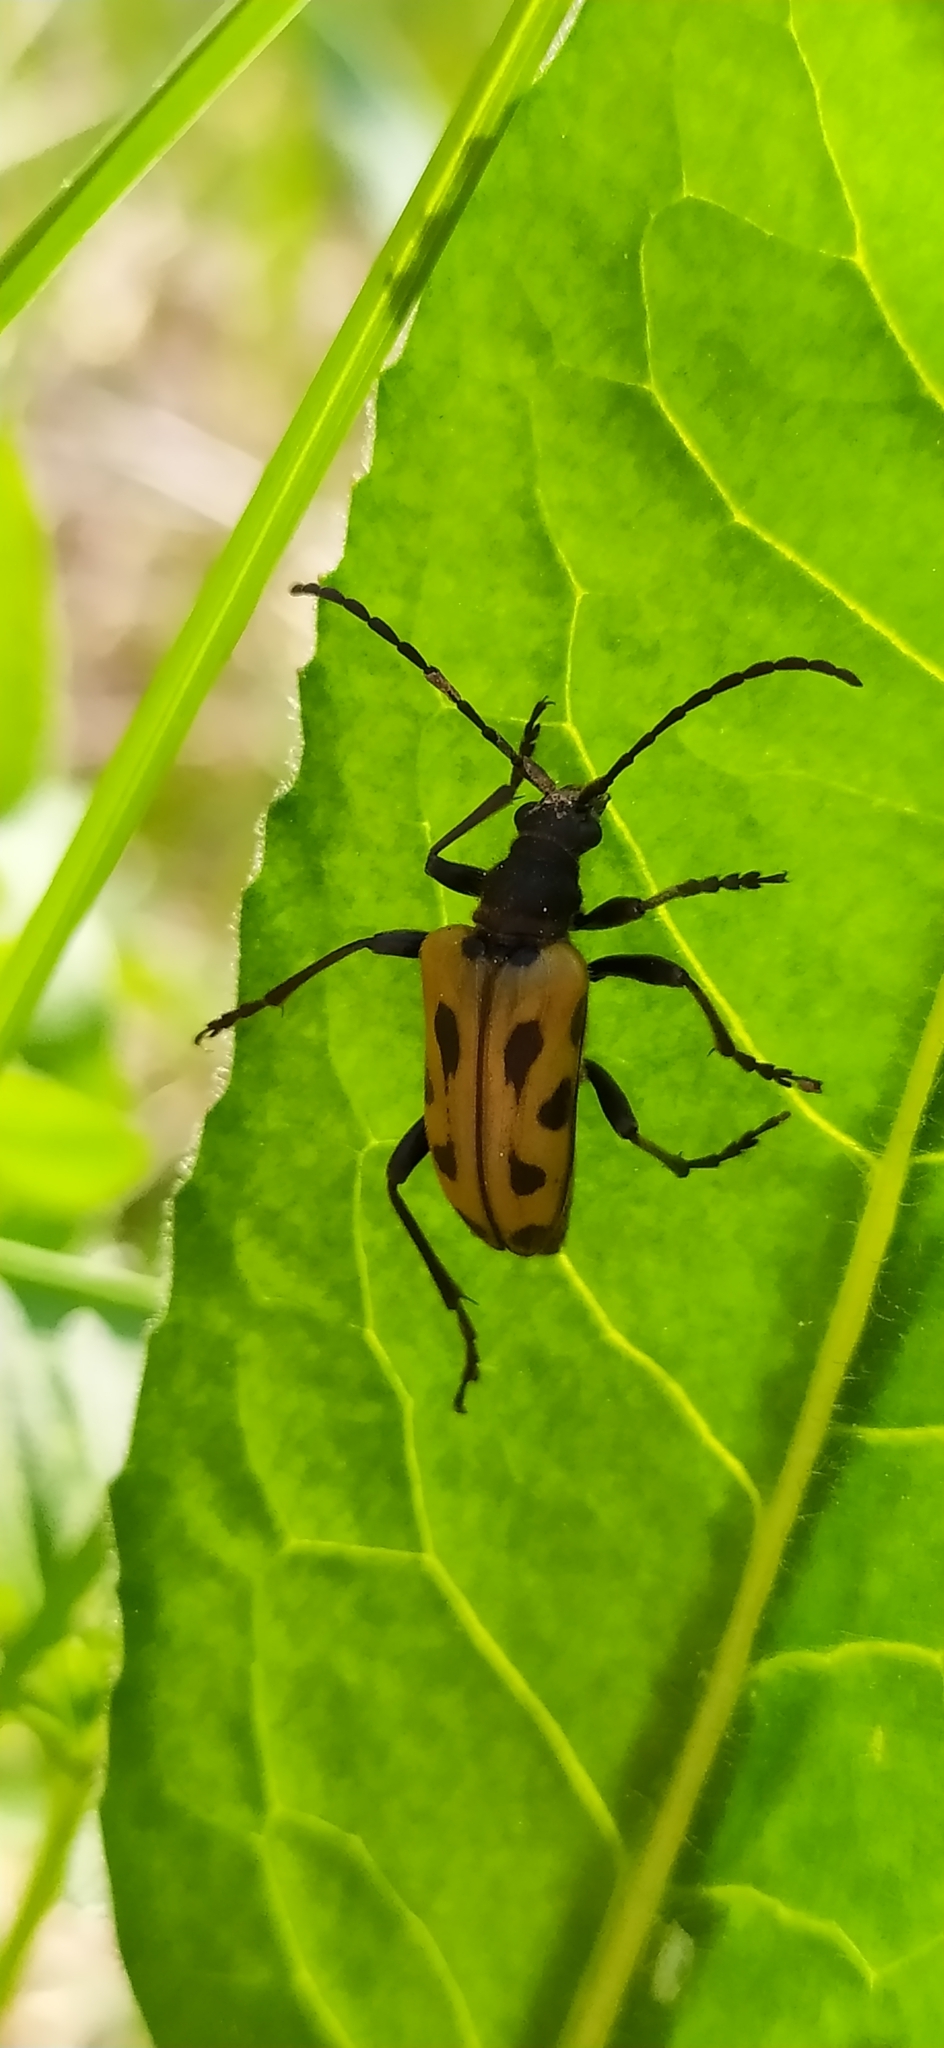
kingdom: Animalia
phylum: Arthropoda
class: Insecta
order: Coleoptera
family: Cerambycidae
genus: Brachyta
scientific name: Brachyta interrogationis
